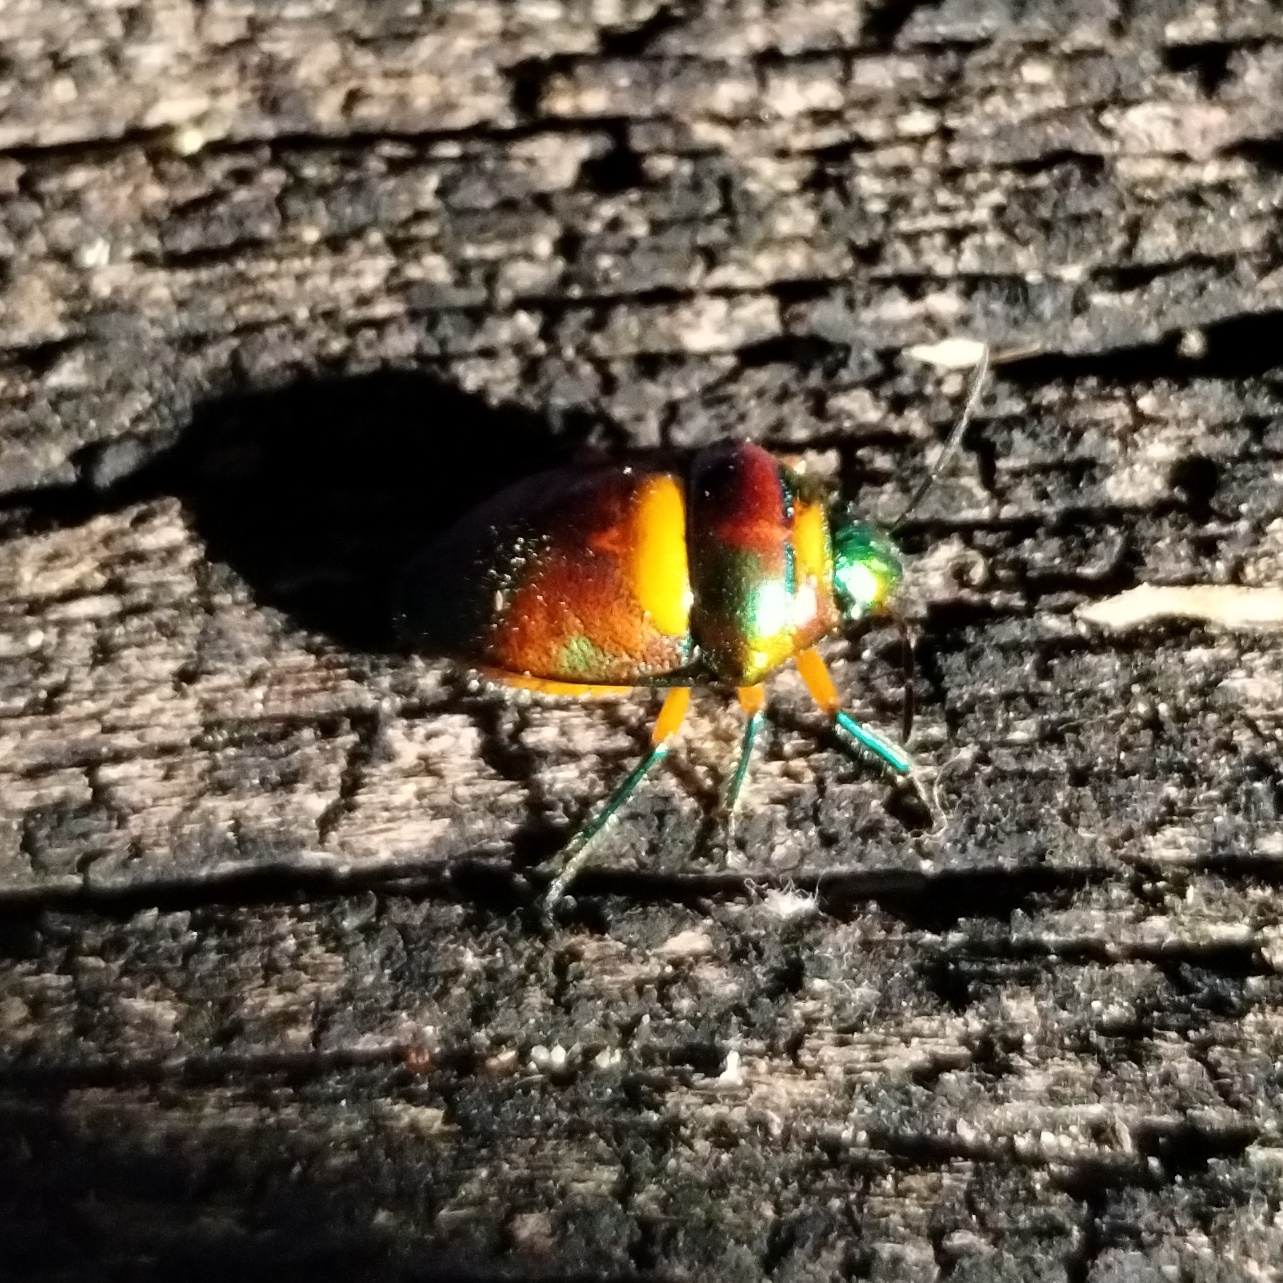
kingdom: Animalia
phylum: Arthropoda
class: Insecta
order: Hemiptera
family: Scutelleridae
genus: Lampromicra
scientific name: Lampromicra senator
